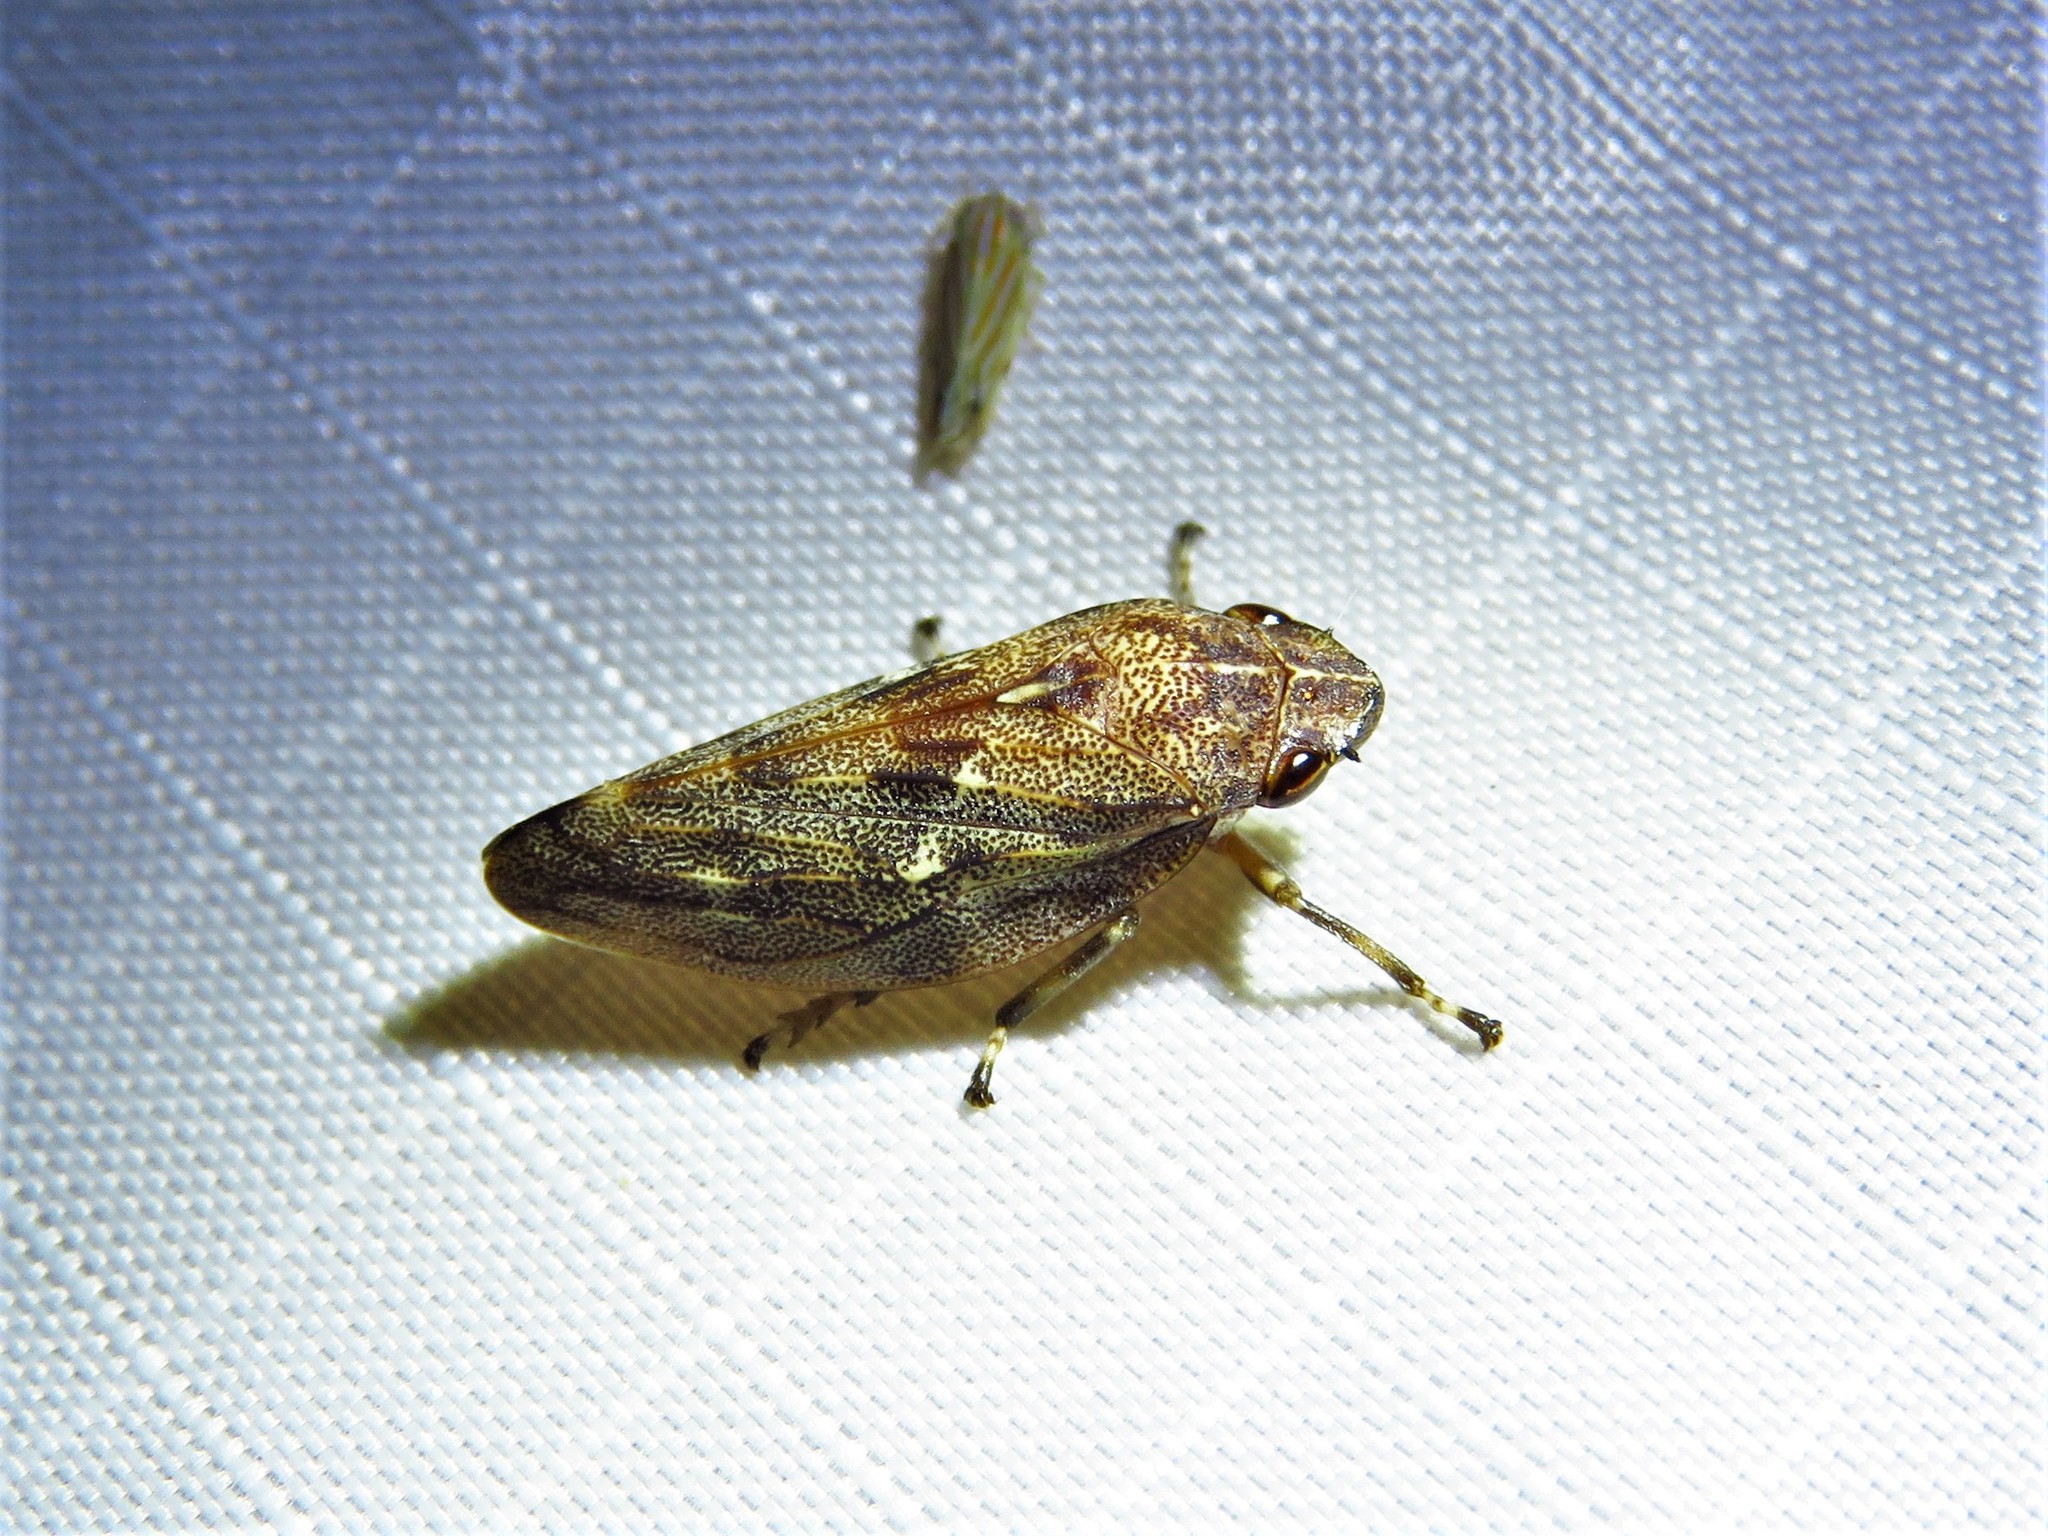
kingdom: Animalia
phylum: Arthropoda
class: Insecta
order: Hemiptera
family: Epipygidae
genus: Epipyga
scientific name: Epipyga cribrata
